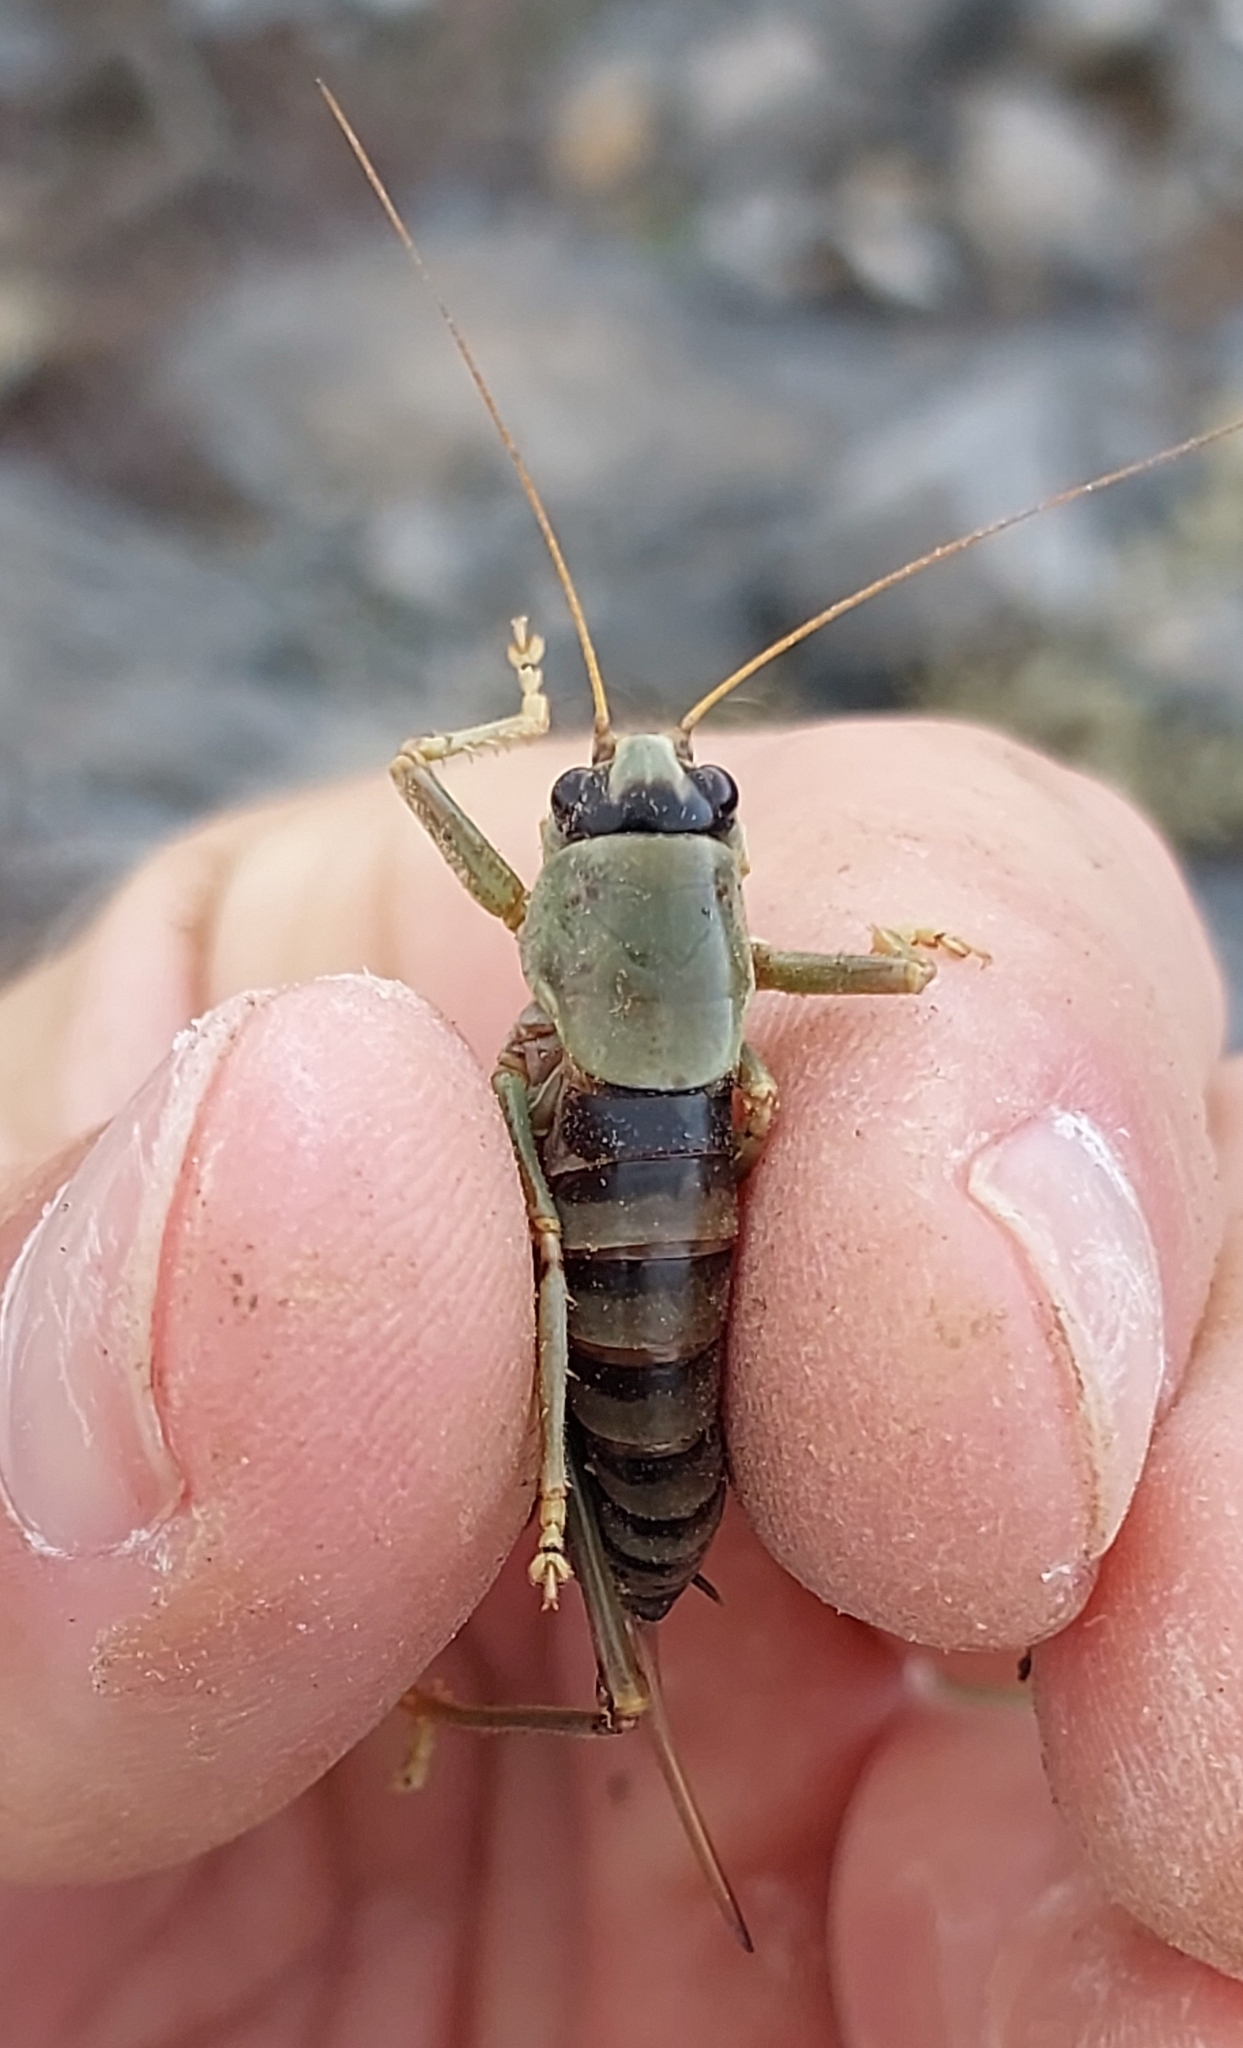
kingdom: Animalia
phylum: Arthropoda
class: Insecta
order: Orthoptera
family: Tettigoniidae
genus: Eupholidoptera
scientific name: Eupholidoptera pallipes
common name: Pale-legged marbled bush-cricket
